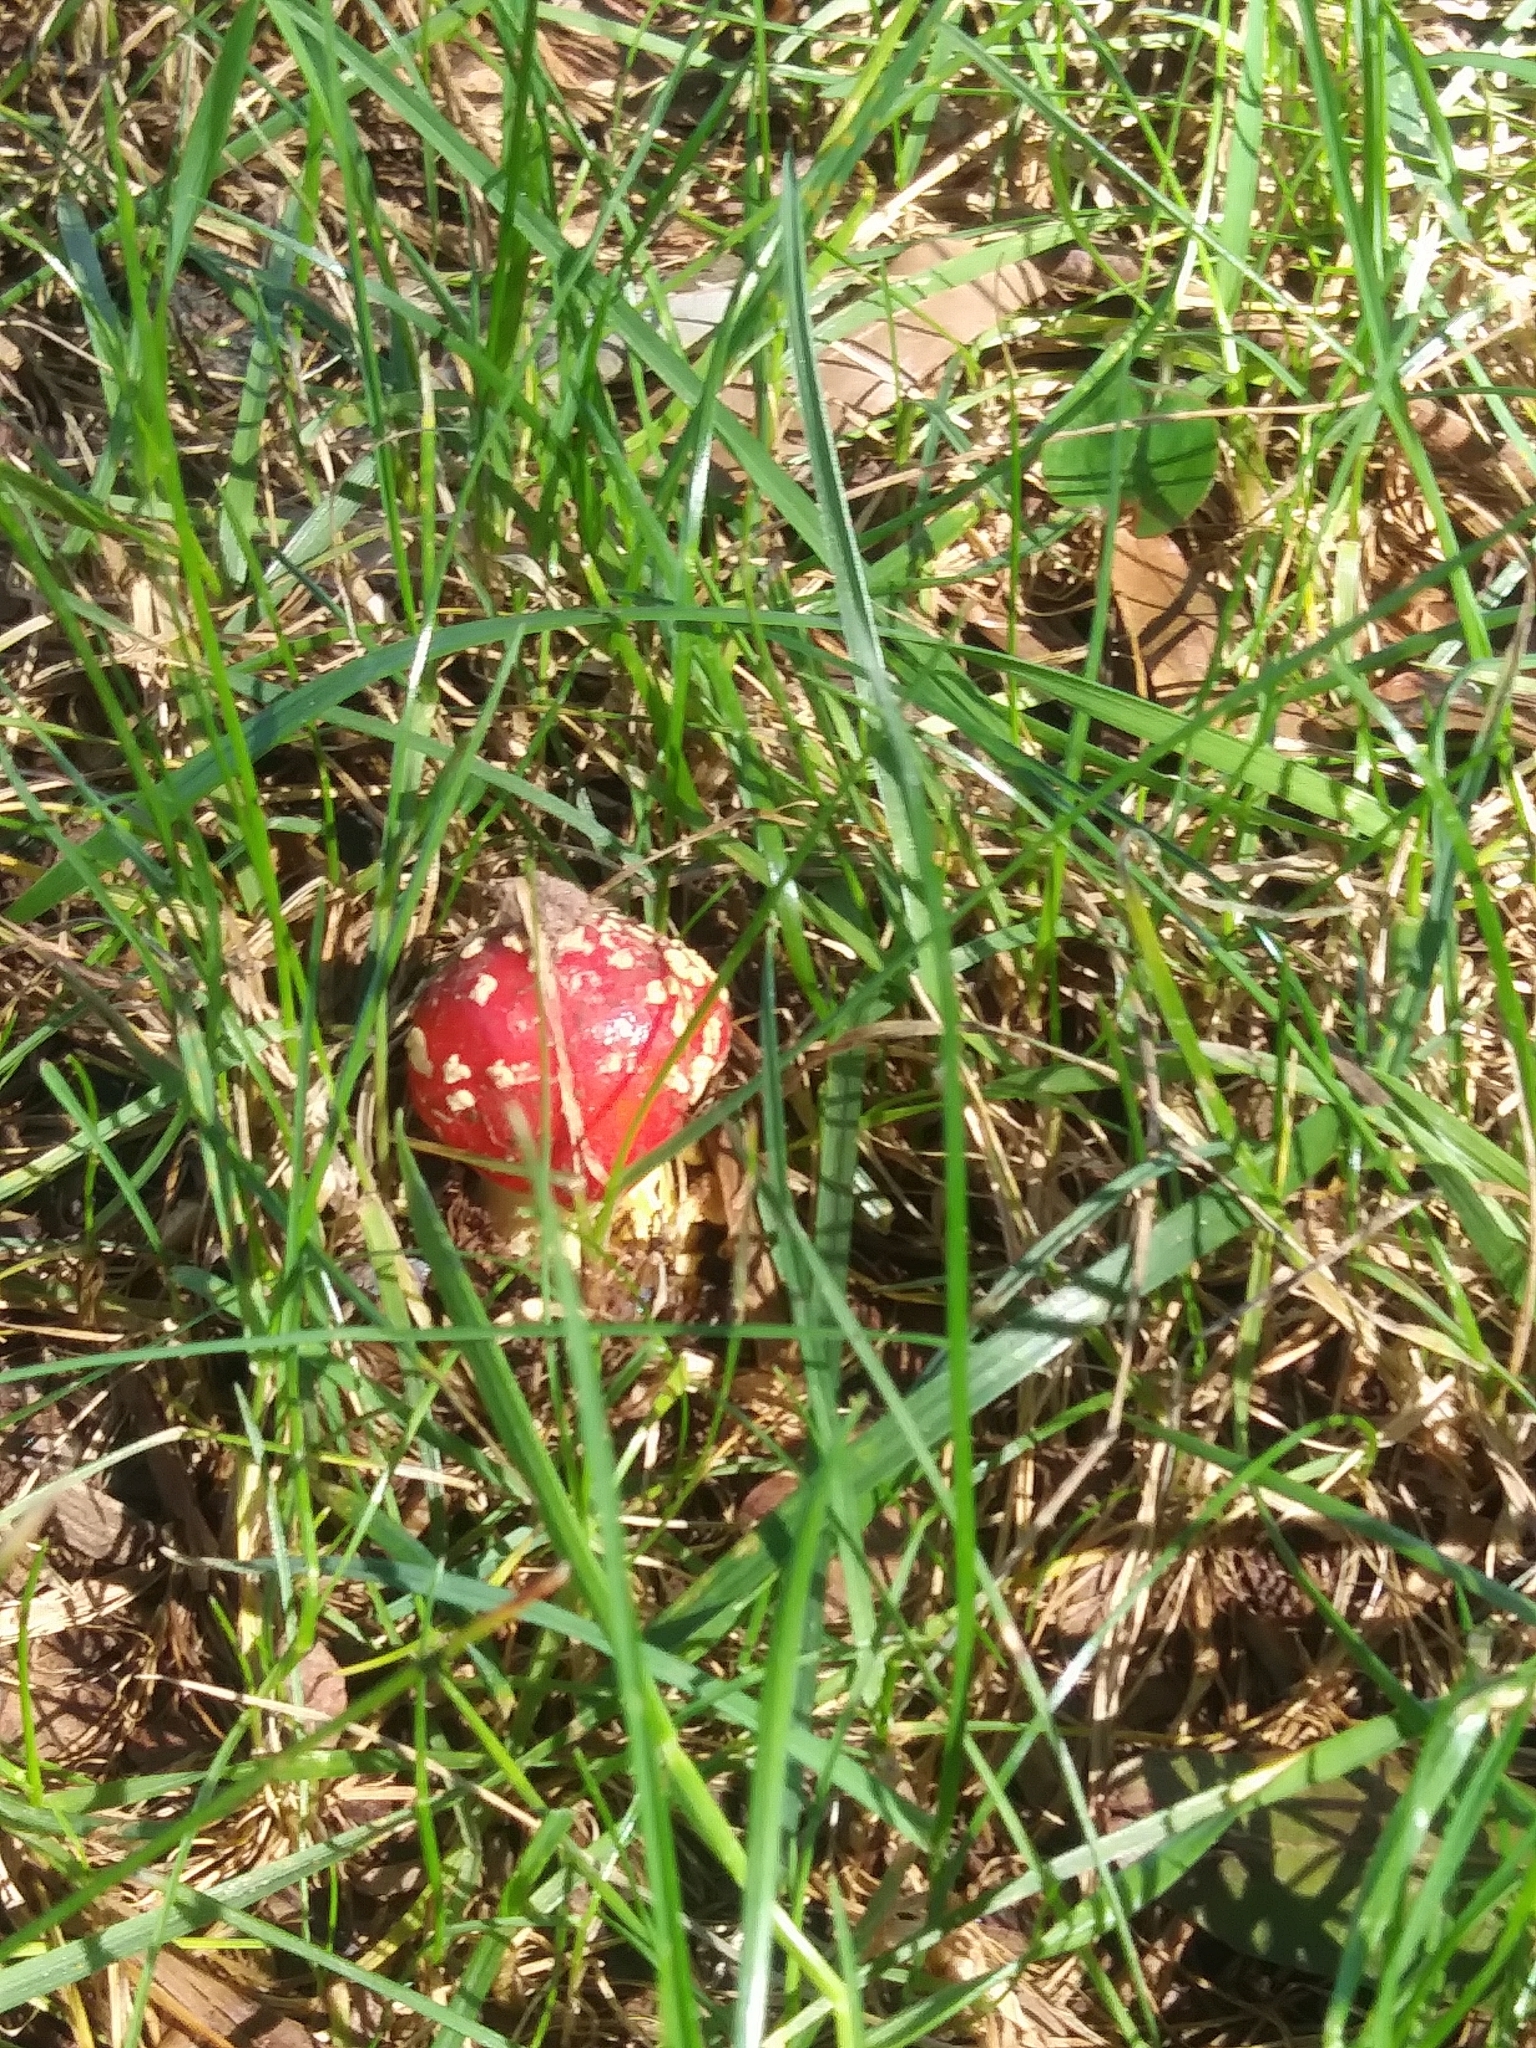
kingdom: Fungi
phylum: Basidiomycota
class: Agaricomycetes
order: Agaricales
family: Amanitaceae
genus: Amanita
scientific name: Amanita parcivolvata
